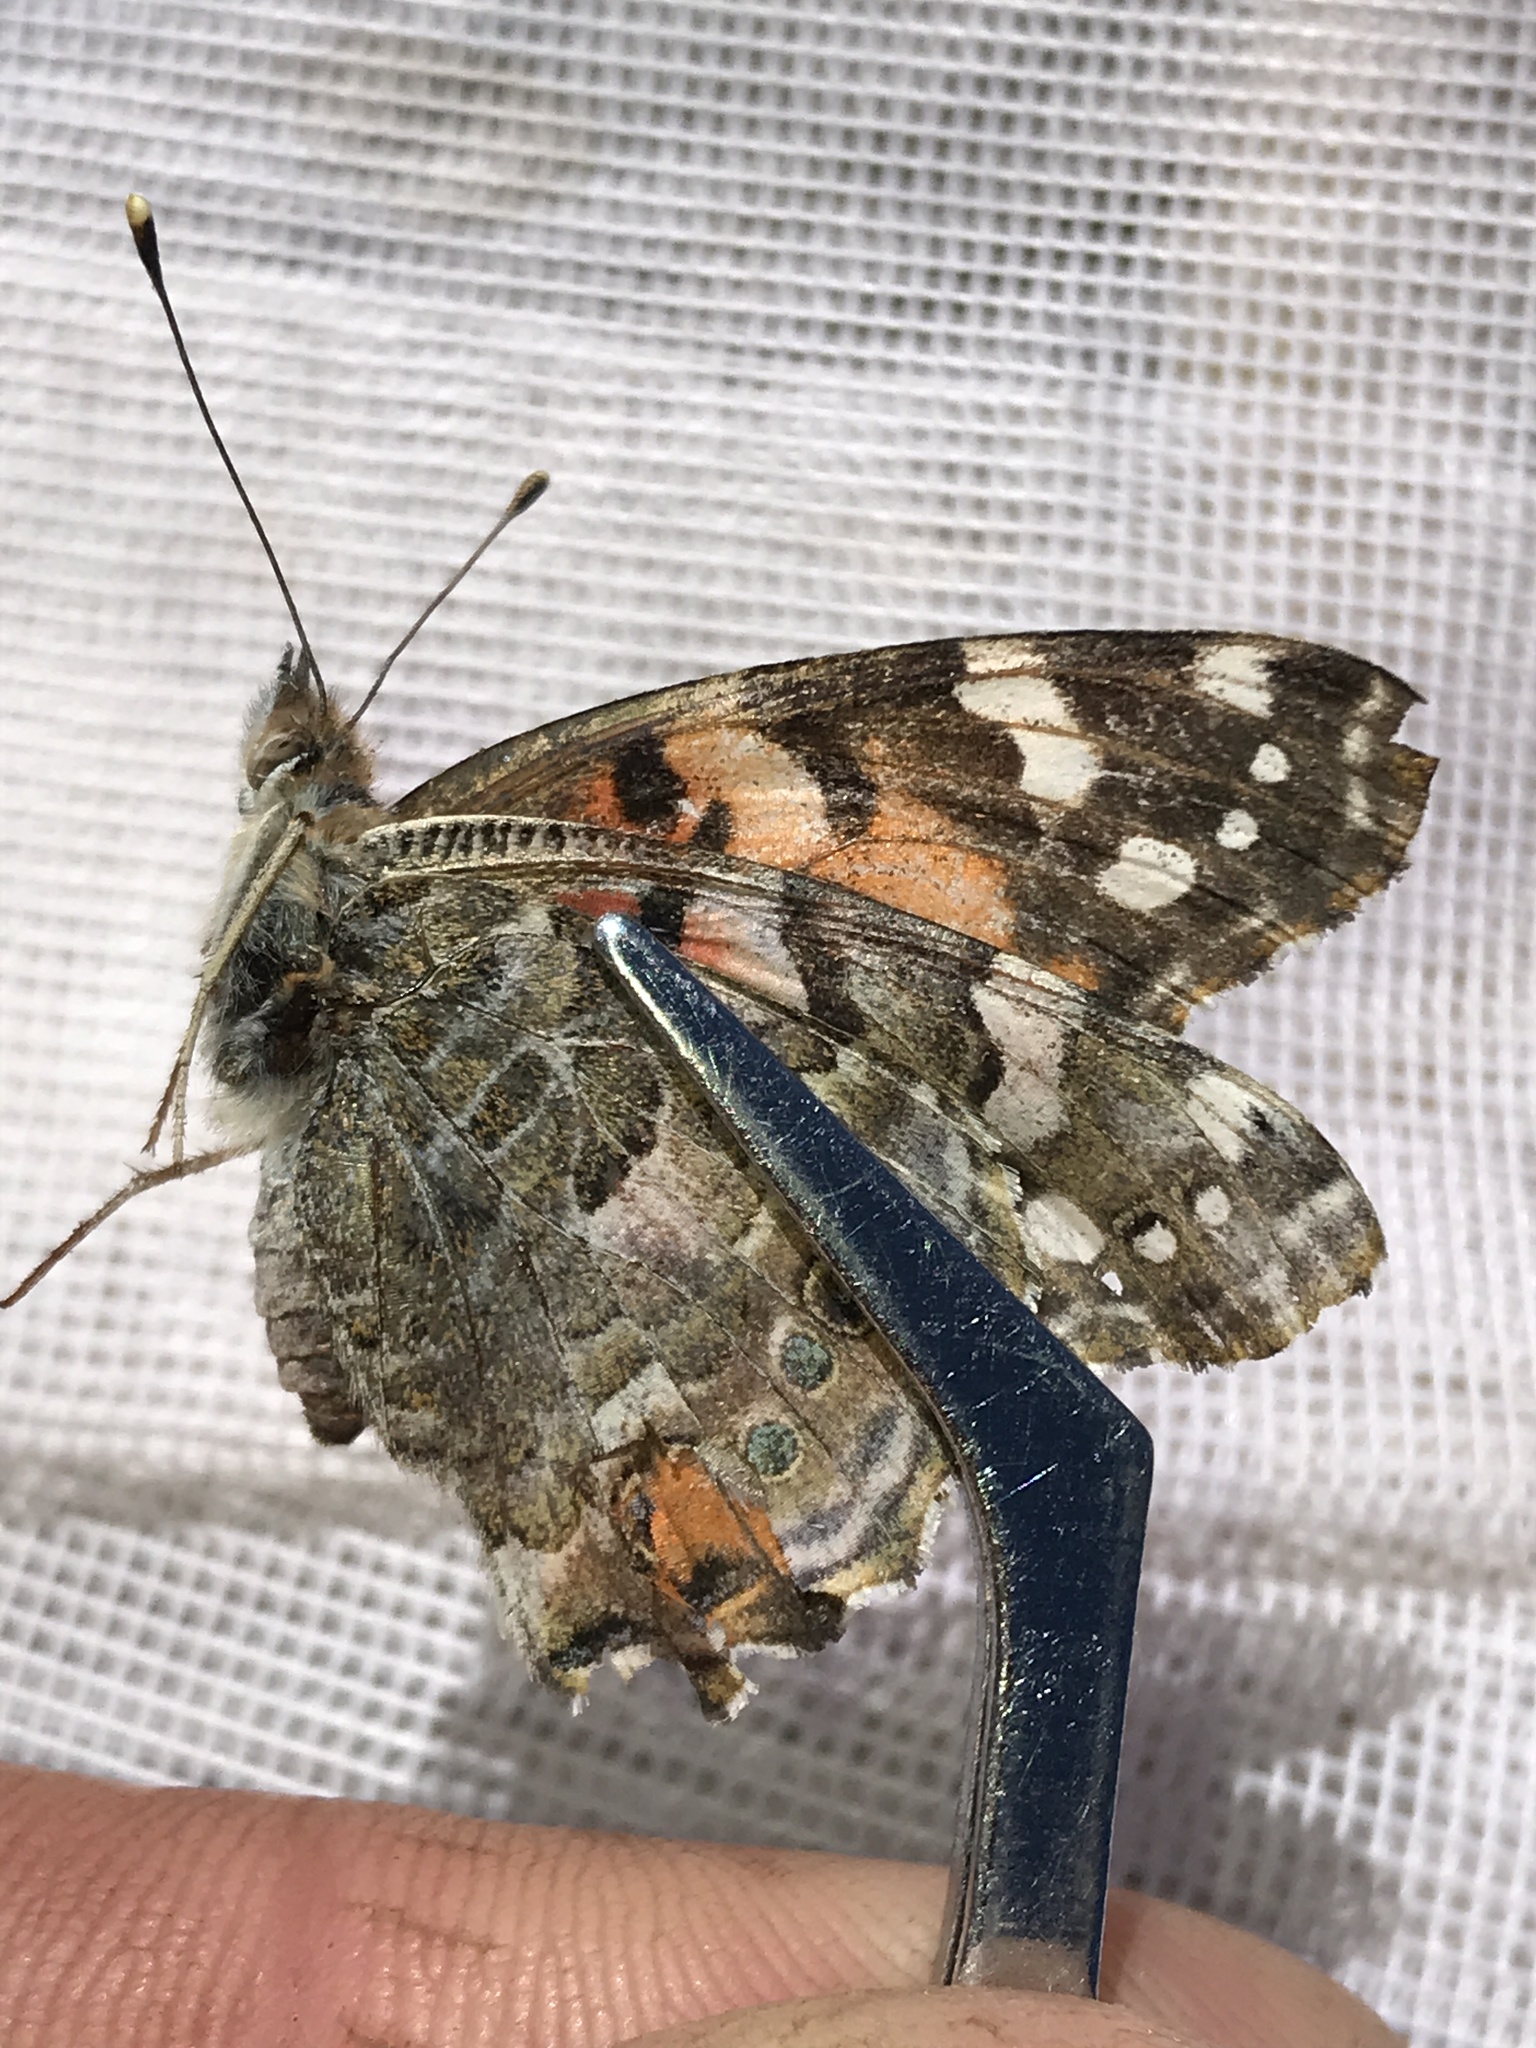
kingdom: Animalia
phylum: Arthropoda
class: Insecta
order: Lepidoptera
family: Nymphalidae
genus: Vanessa
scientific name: Vanessa cardui
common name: Painted lady
